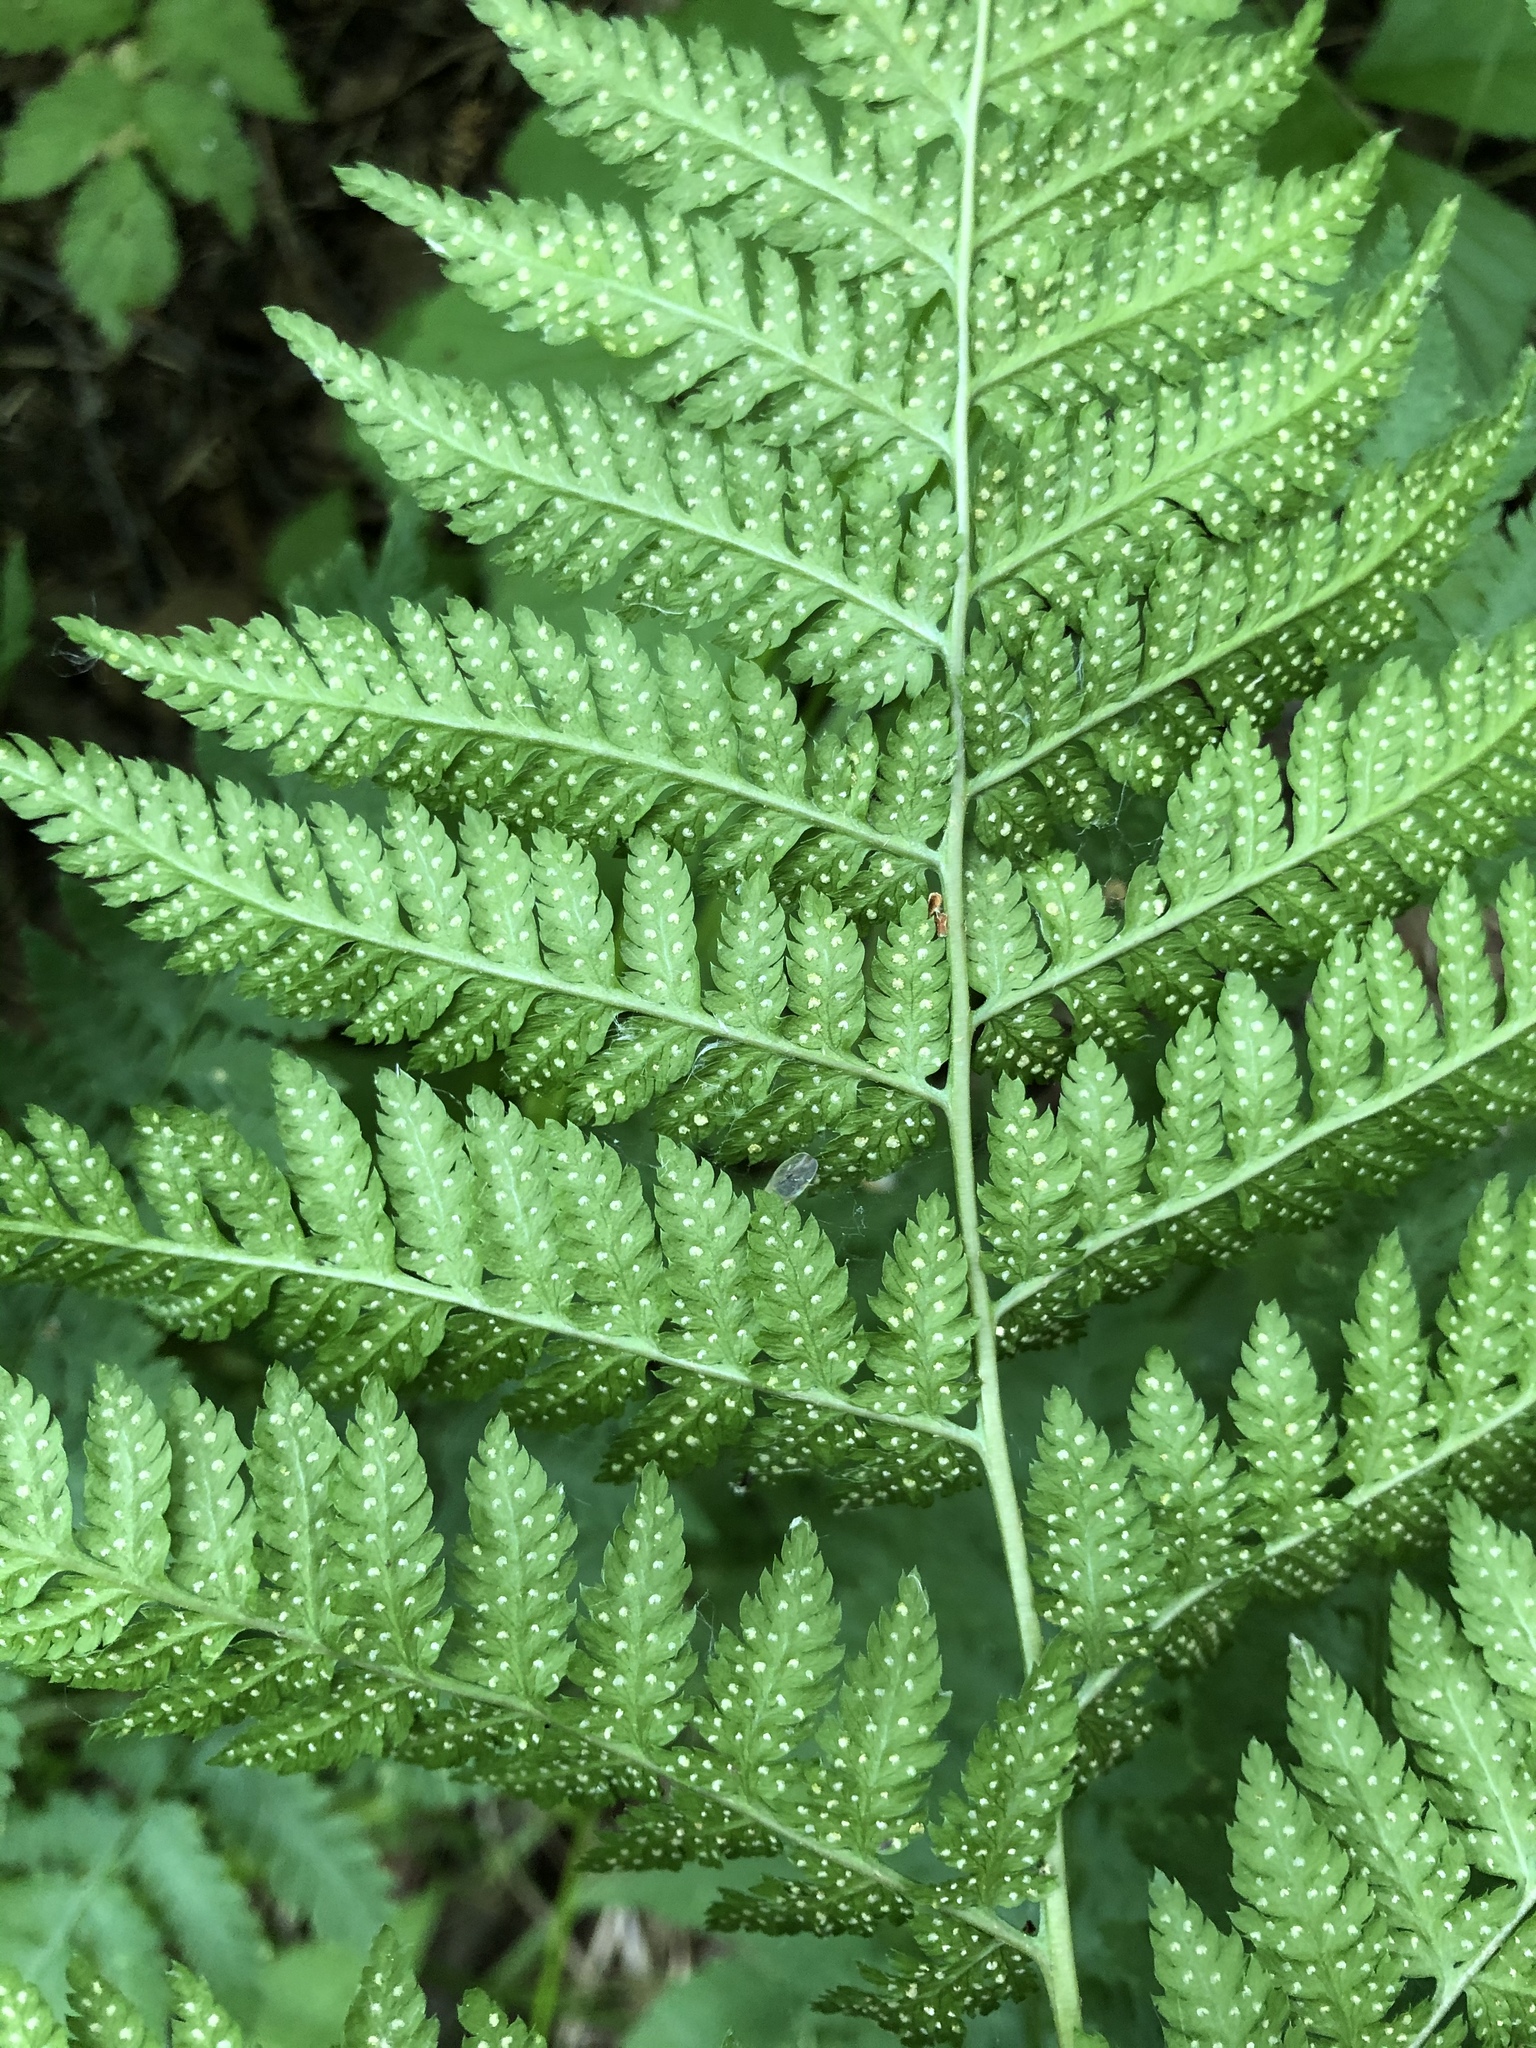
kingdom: Plantae
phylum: Tracheophyta
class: Polypodiopsida
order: Polypodiales
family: Dryopteridaceae
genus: Dryopteris
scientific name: Dryopteris carthusiana
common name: Narrow buckler-fern
